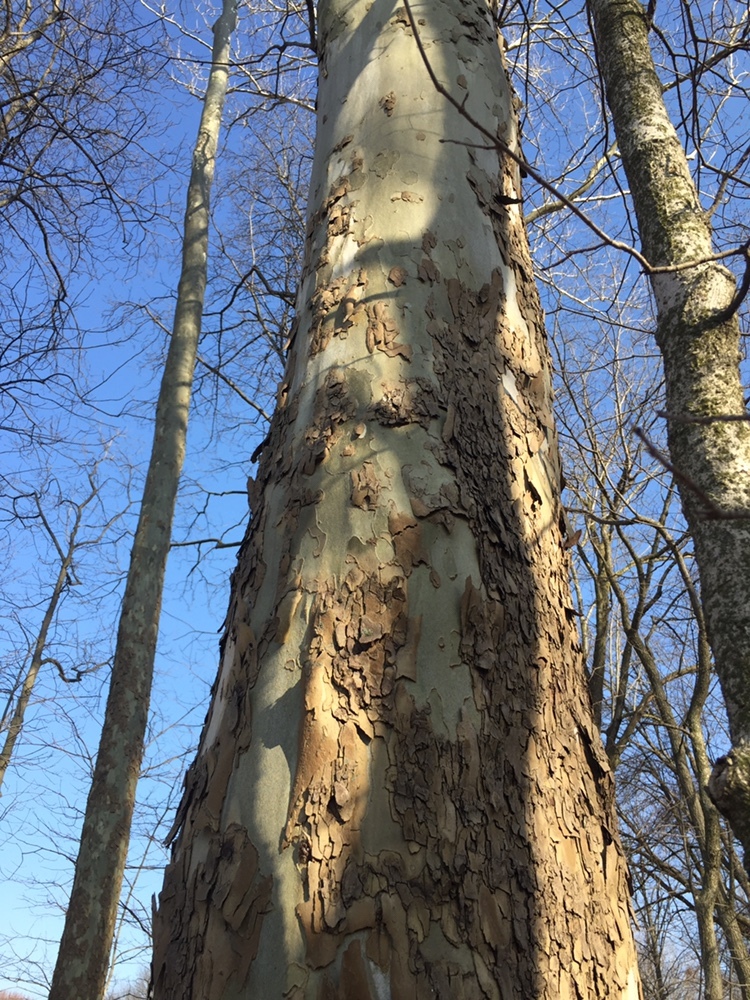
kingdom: Plantae
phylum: Tracheophyta
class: Magnoliopsida
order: Proteales
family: Platanaceae
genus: Platanus
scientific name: Platanus occidentalis
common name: American sycamore
